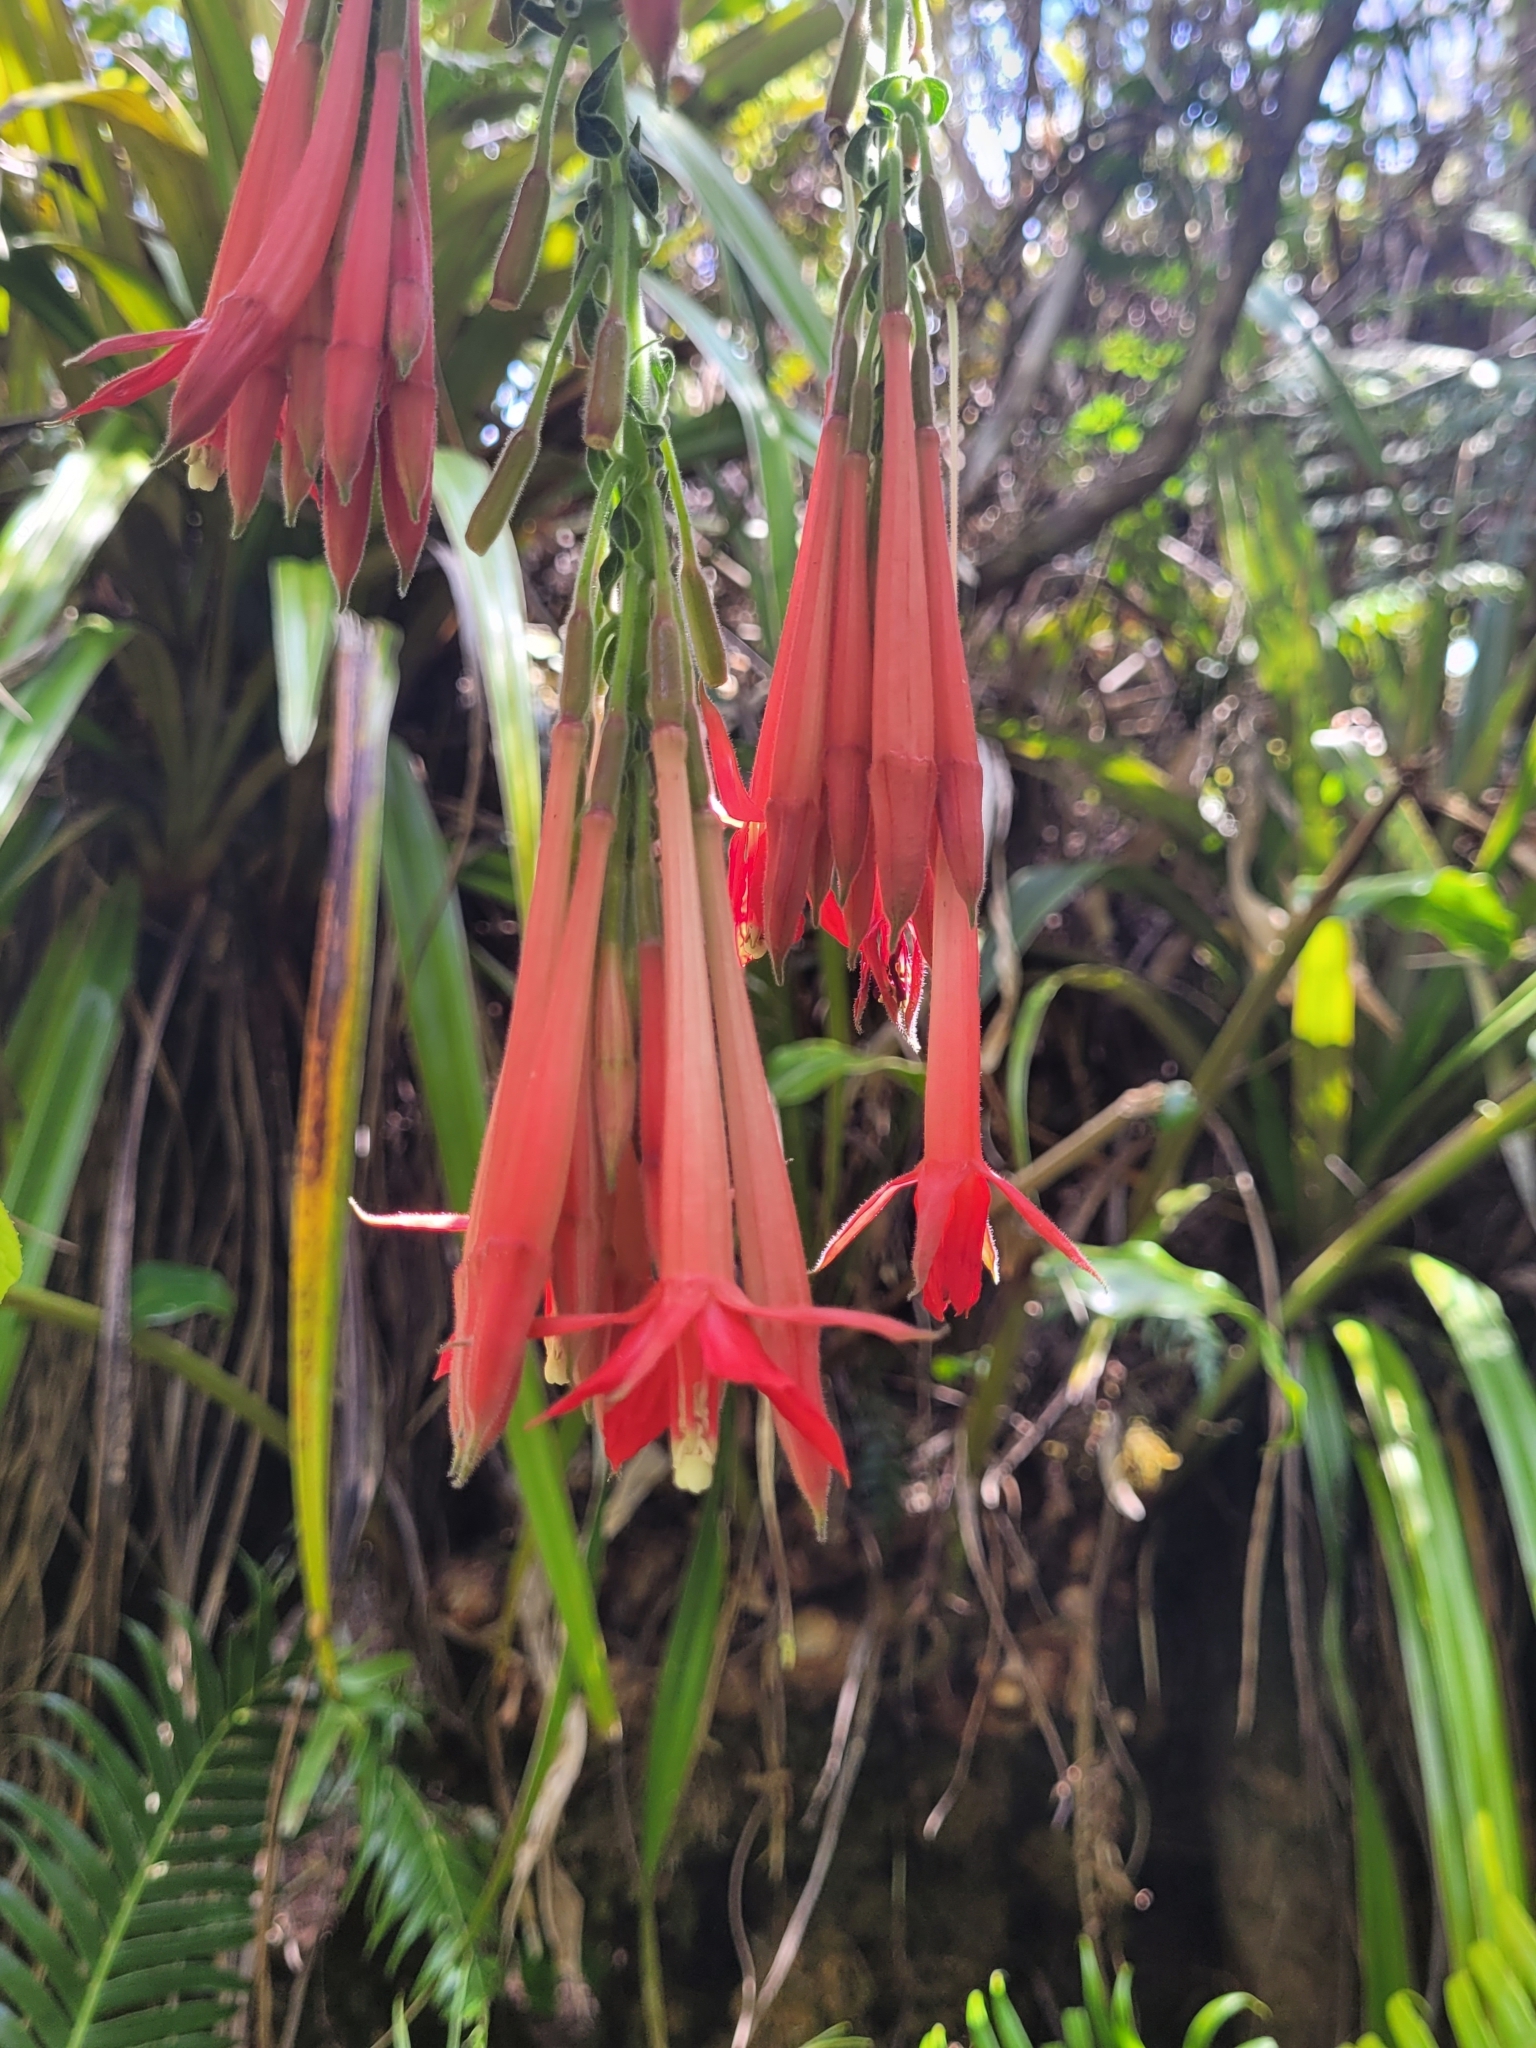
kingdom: Plantae
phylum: Tracheophyta
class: Magnoliopsida
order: Myrtales
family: Onagraceae
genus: Fuchsia
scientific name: Fuchsia boliviana
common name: Bolivian fuchsia
